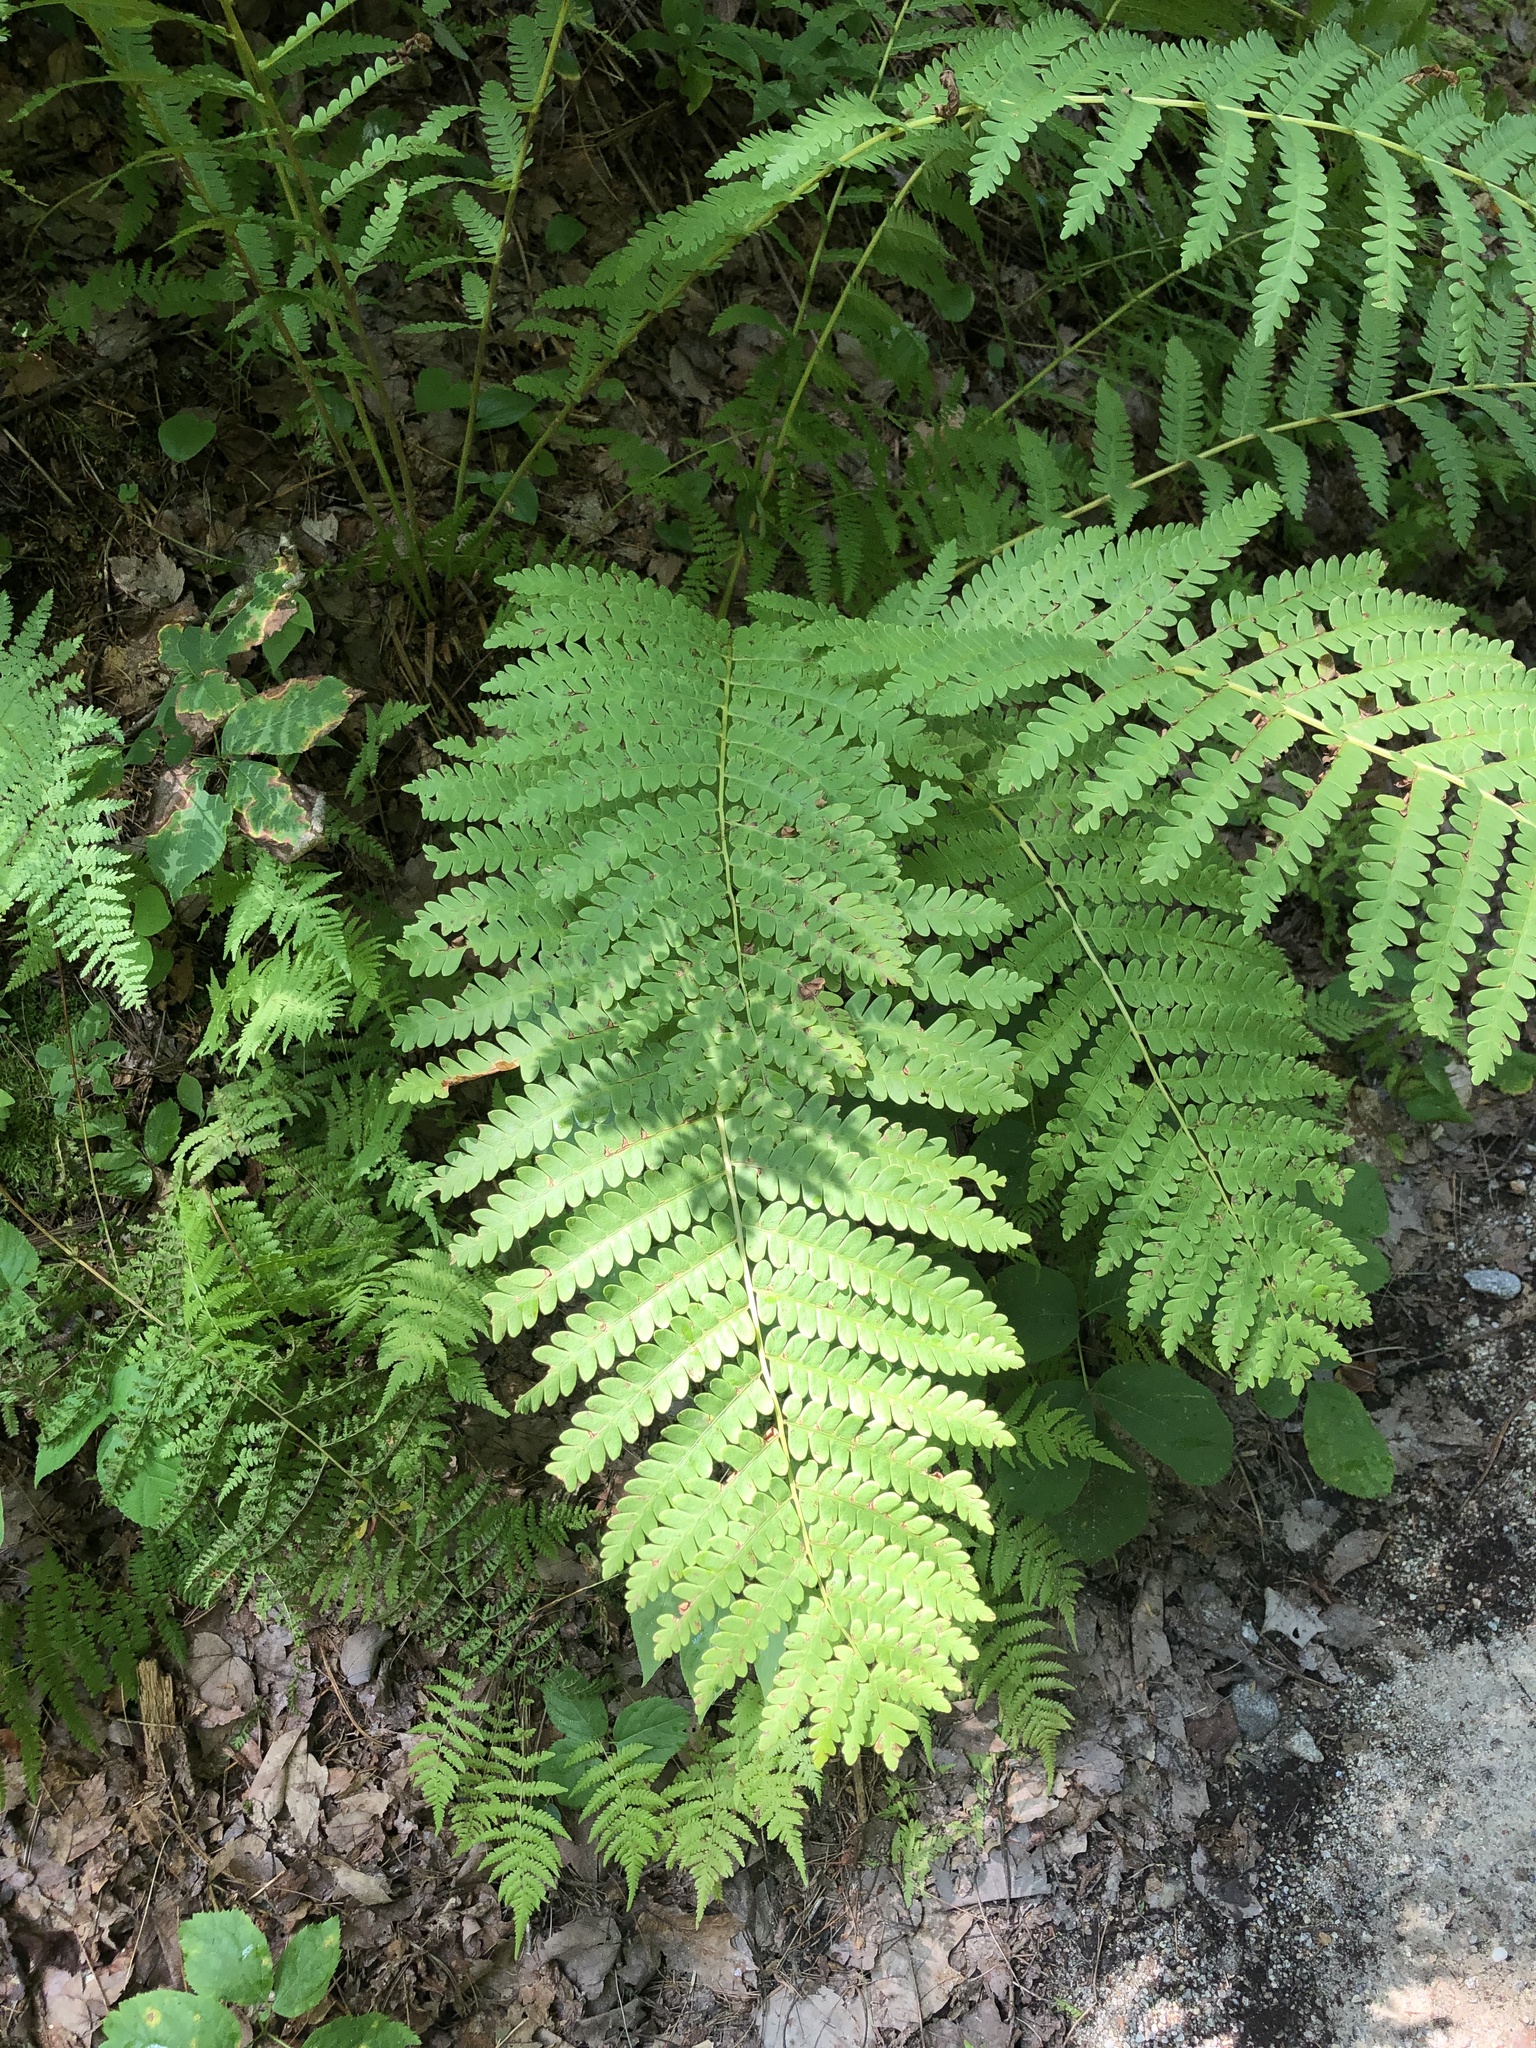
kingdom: Plantae
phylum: Tracheophyta
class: Polypodiopsida
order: Osmundales
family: Osmundaceae
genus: Claytosmunda
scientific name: Claytosmunda claytoniana
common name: Clayton's fern
